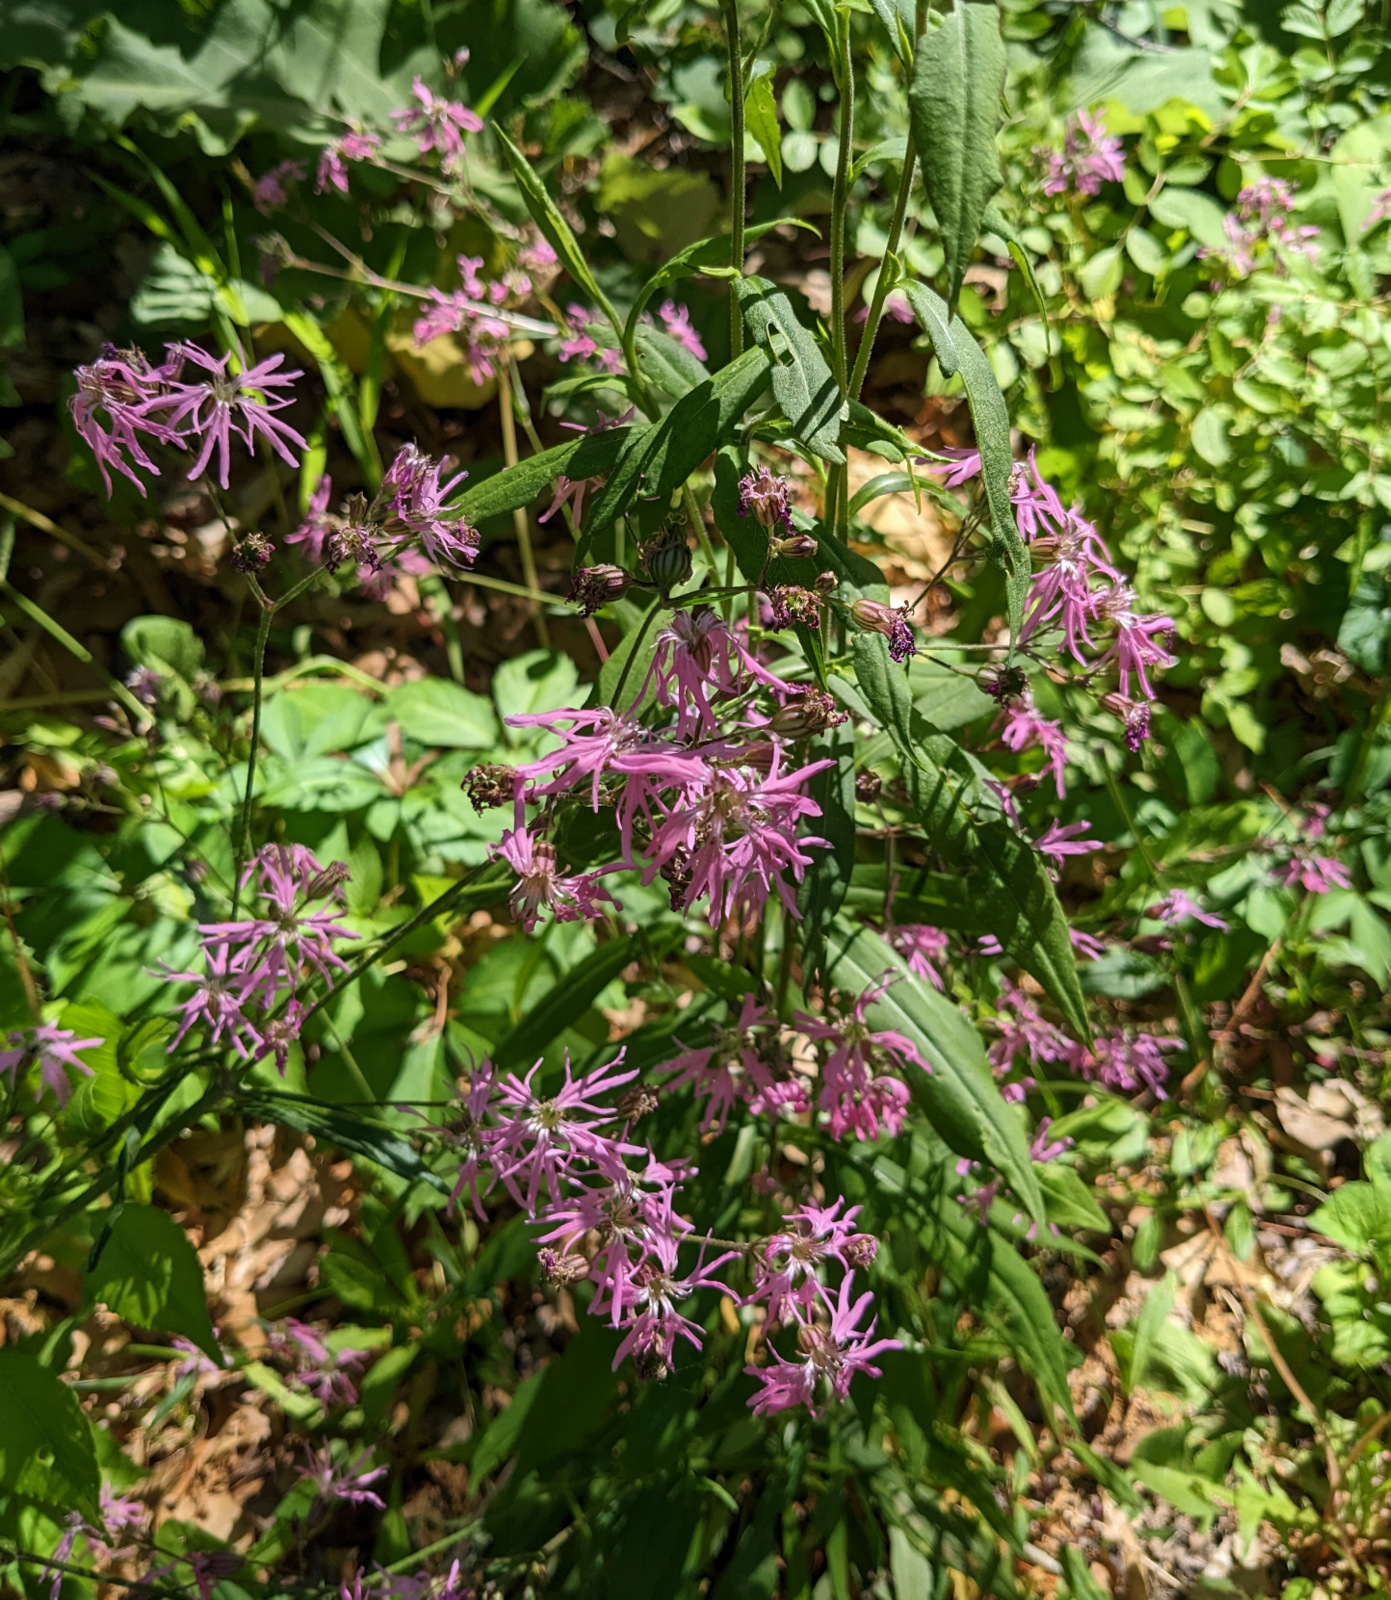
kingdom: Plantae
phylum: Tracheophyta
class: Magnoliopsida
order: Caryophyllales
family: Caryophyllaceae
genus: Silene
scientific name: Silene flos-cuculi
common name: Ragged-robin
